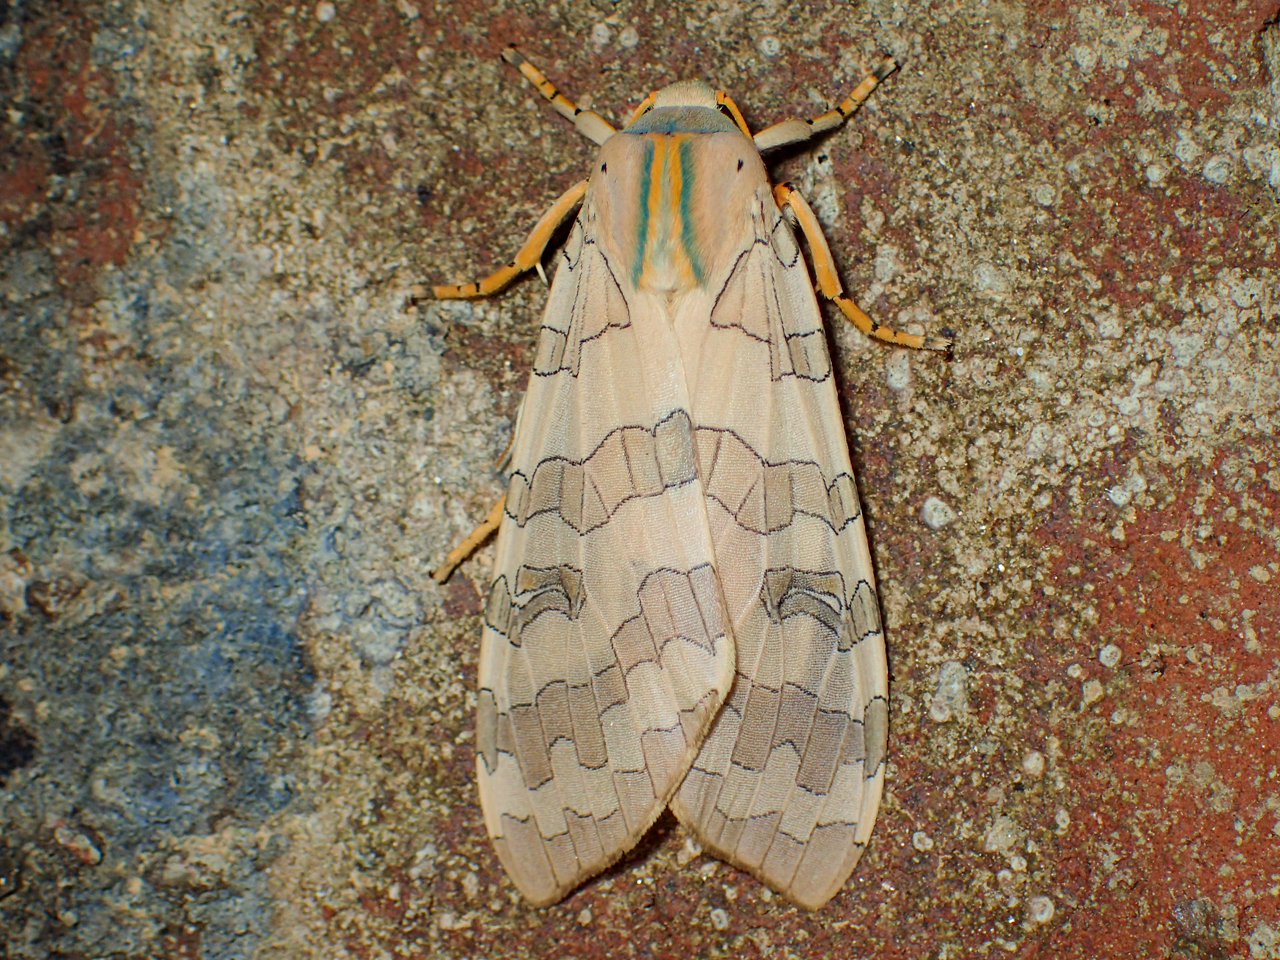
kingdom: Animalia
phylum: Arthropoda
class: Insecta
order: Lepidoptera
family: Erebidae
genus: Halysidota
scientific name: Halysidota
